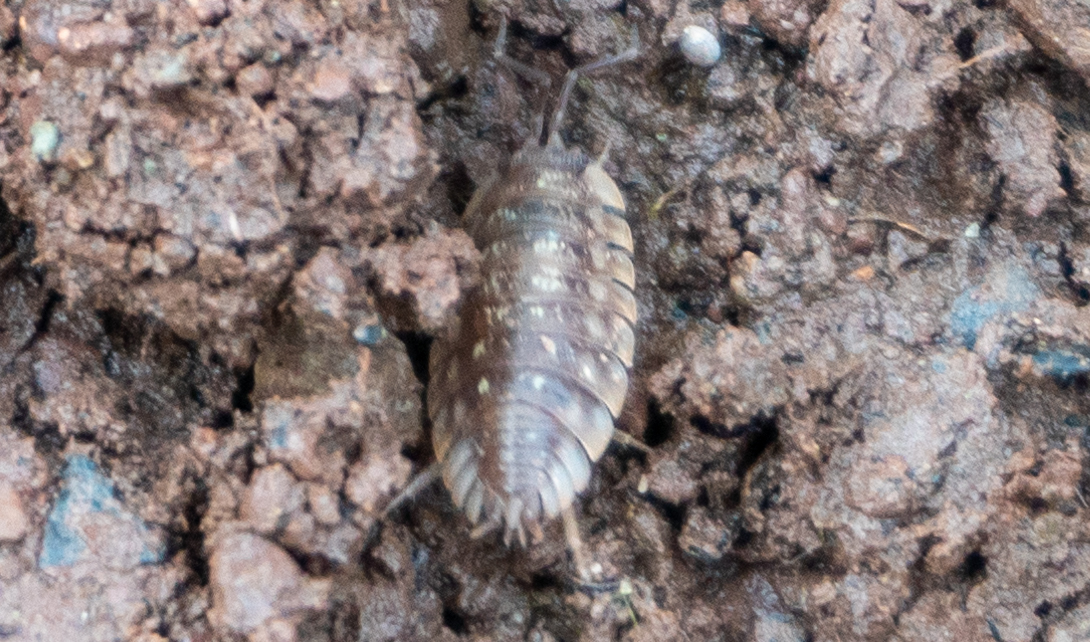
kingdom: Animalia
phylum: Arthropoda
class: Malacostraca
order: Isopoda
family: Oniscidae
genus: Oniscus
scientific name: Oniscus asellus
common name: Common shiny woodlouse
